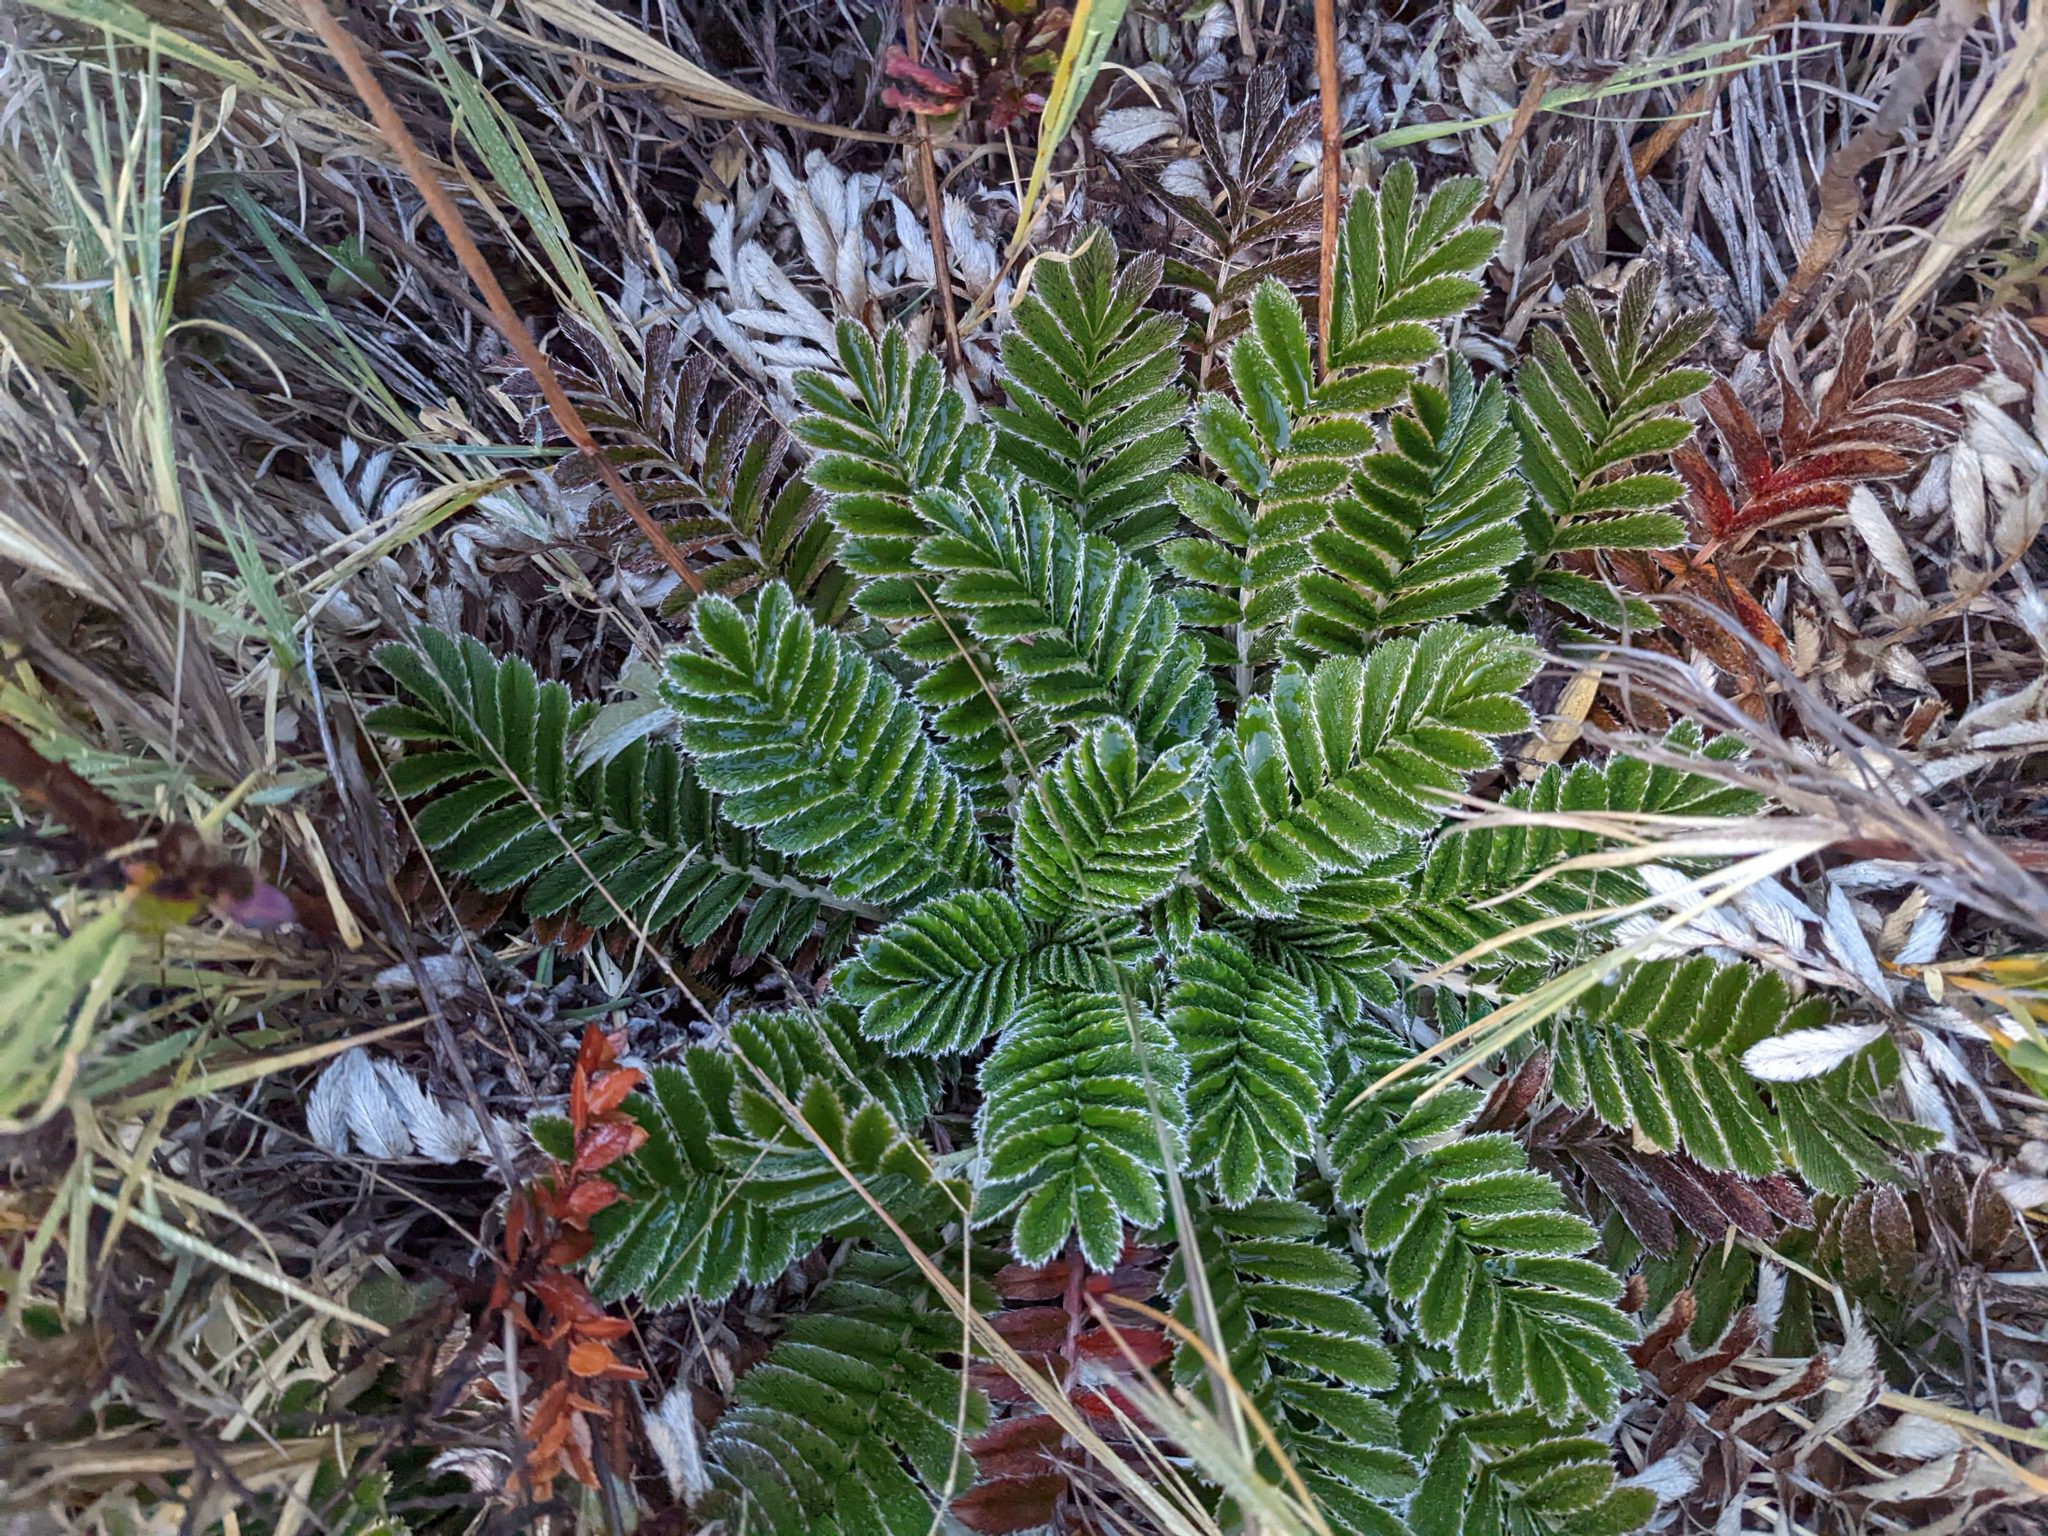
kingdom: Plantae
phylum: Tracheophyta
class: Magnoliopsida
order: Rosales
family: Rosaceae
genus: Acaena
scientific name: Acaena cylindristachya
